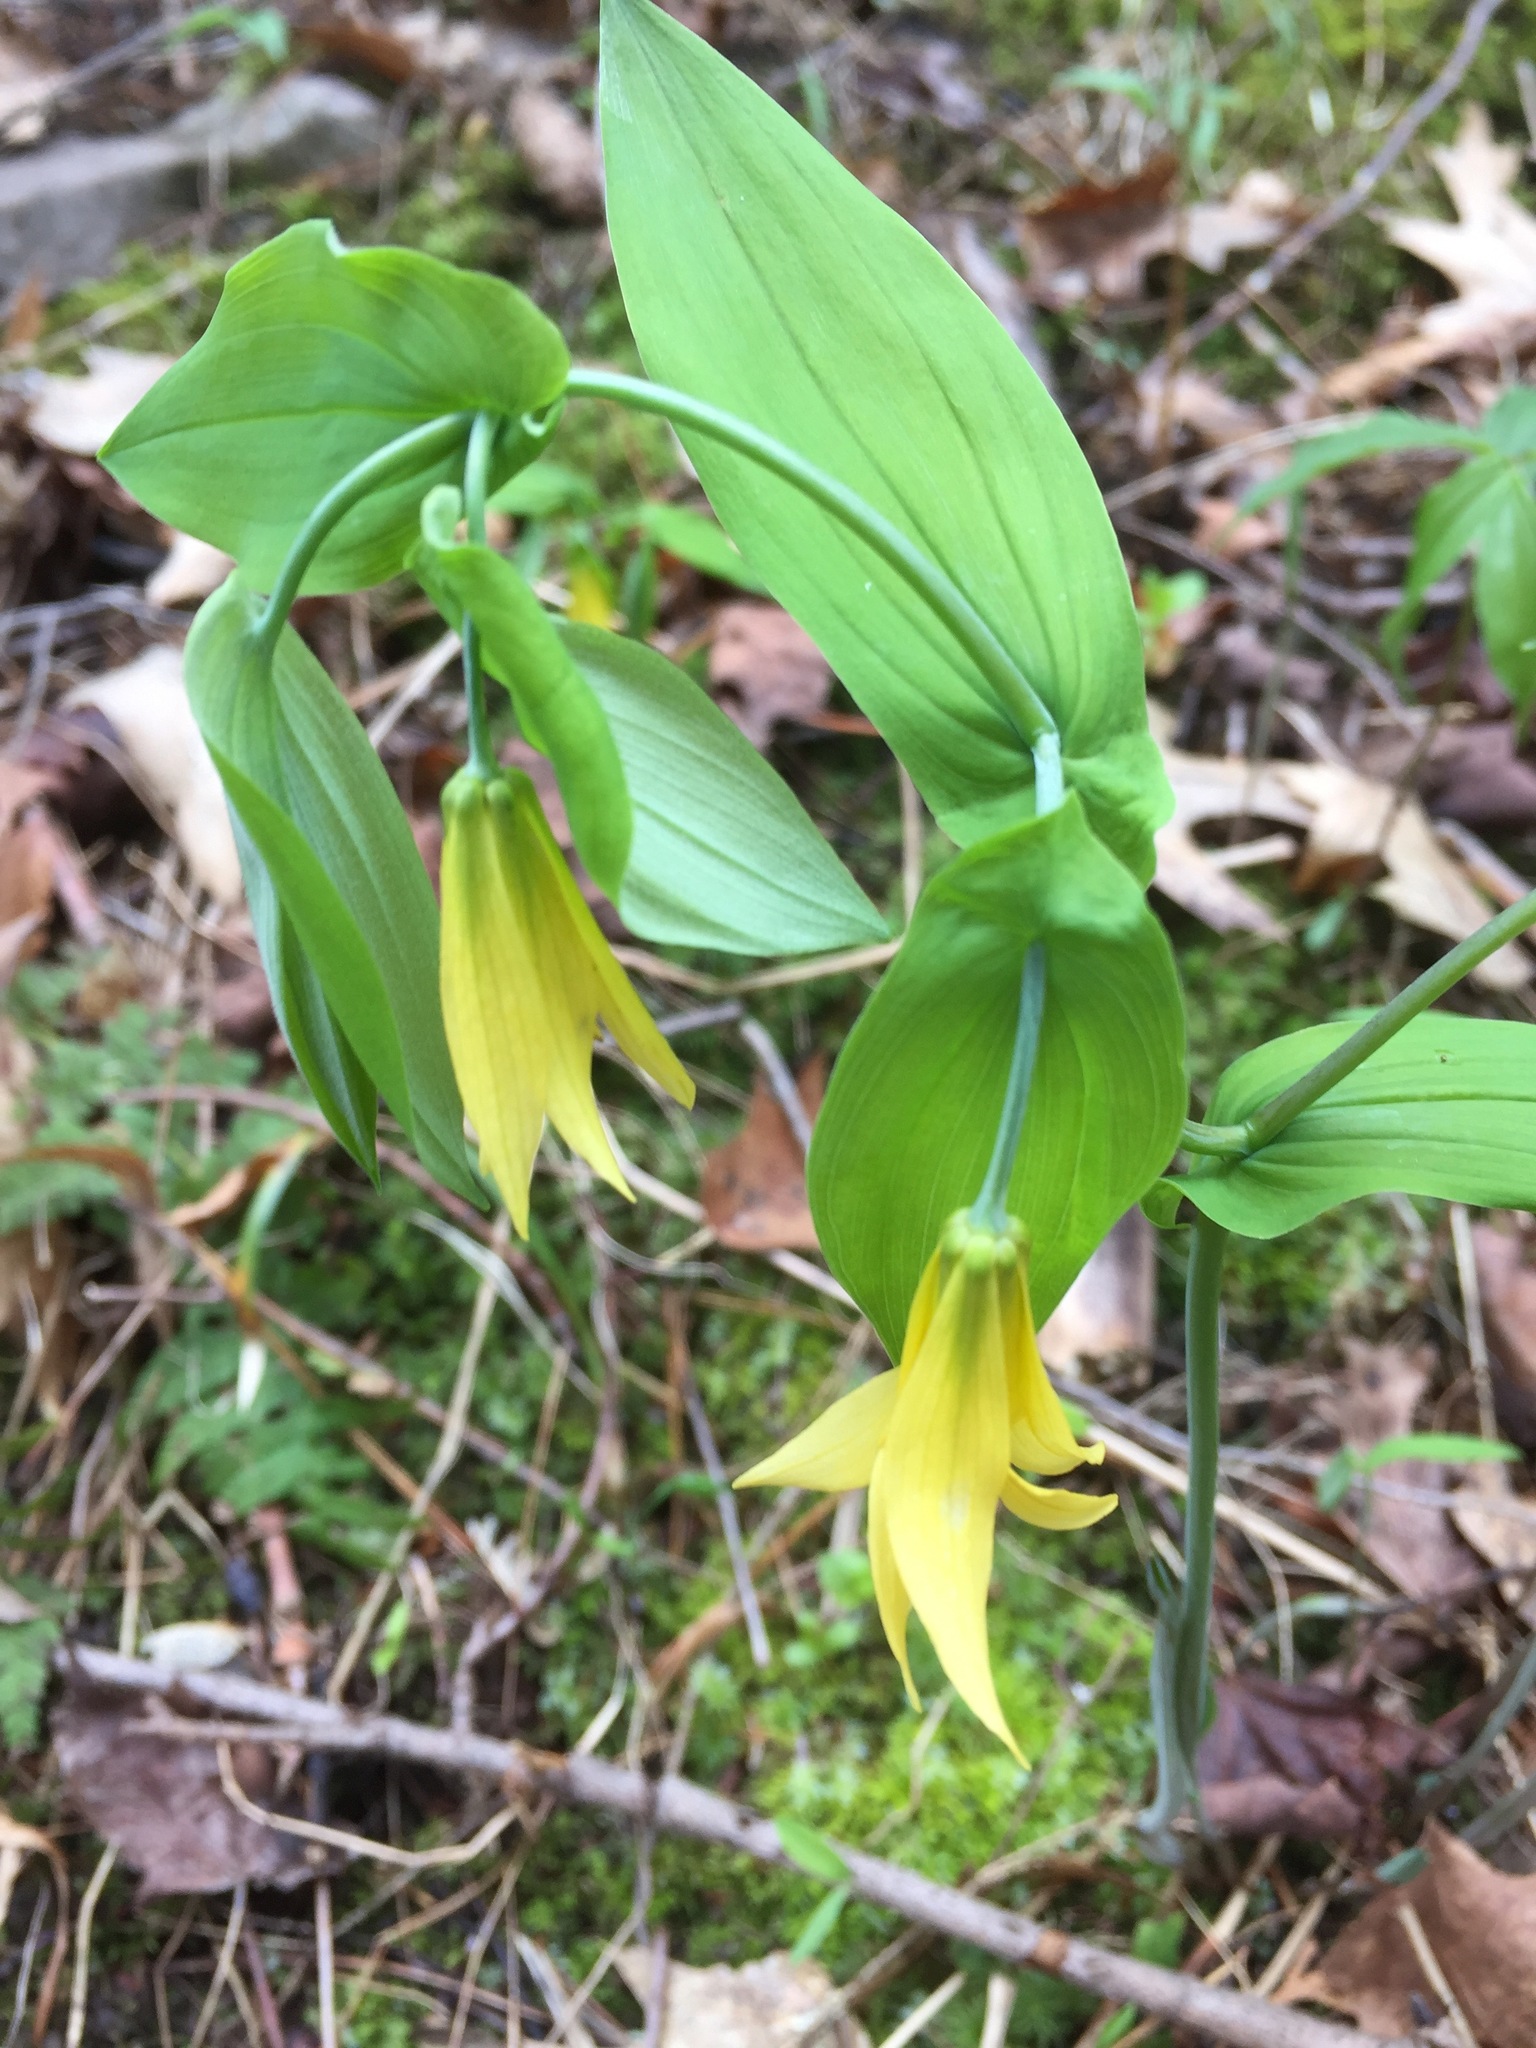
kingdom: Plantae
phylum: Tracheophyta
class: Liliopsida
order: Liliales
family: Colchicaceae
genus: Uvularia
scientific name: Uvularia grandiflora
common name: Bellwort
